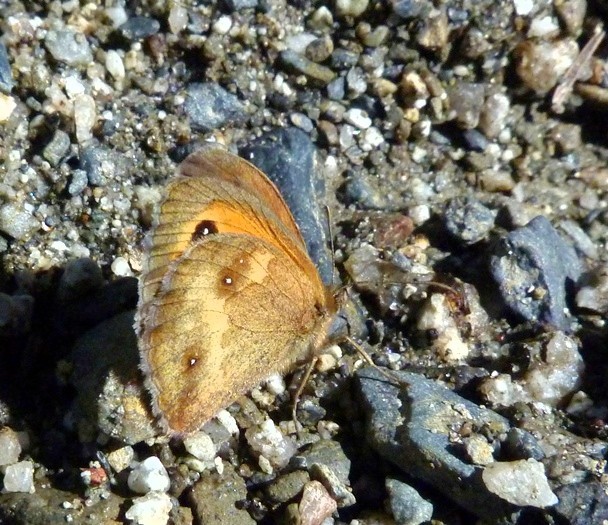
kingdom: Animalia
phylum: Arthropoda
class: Insecta
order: Lepidoptera
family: Nymphalidae
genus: Pyronia
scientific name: Pyronia tithonus
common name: Gatekeeper
